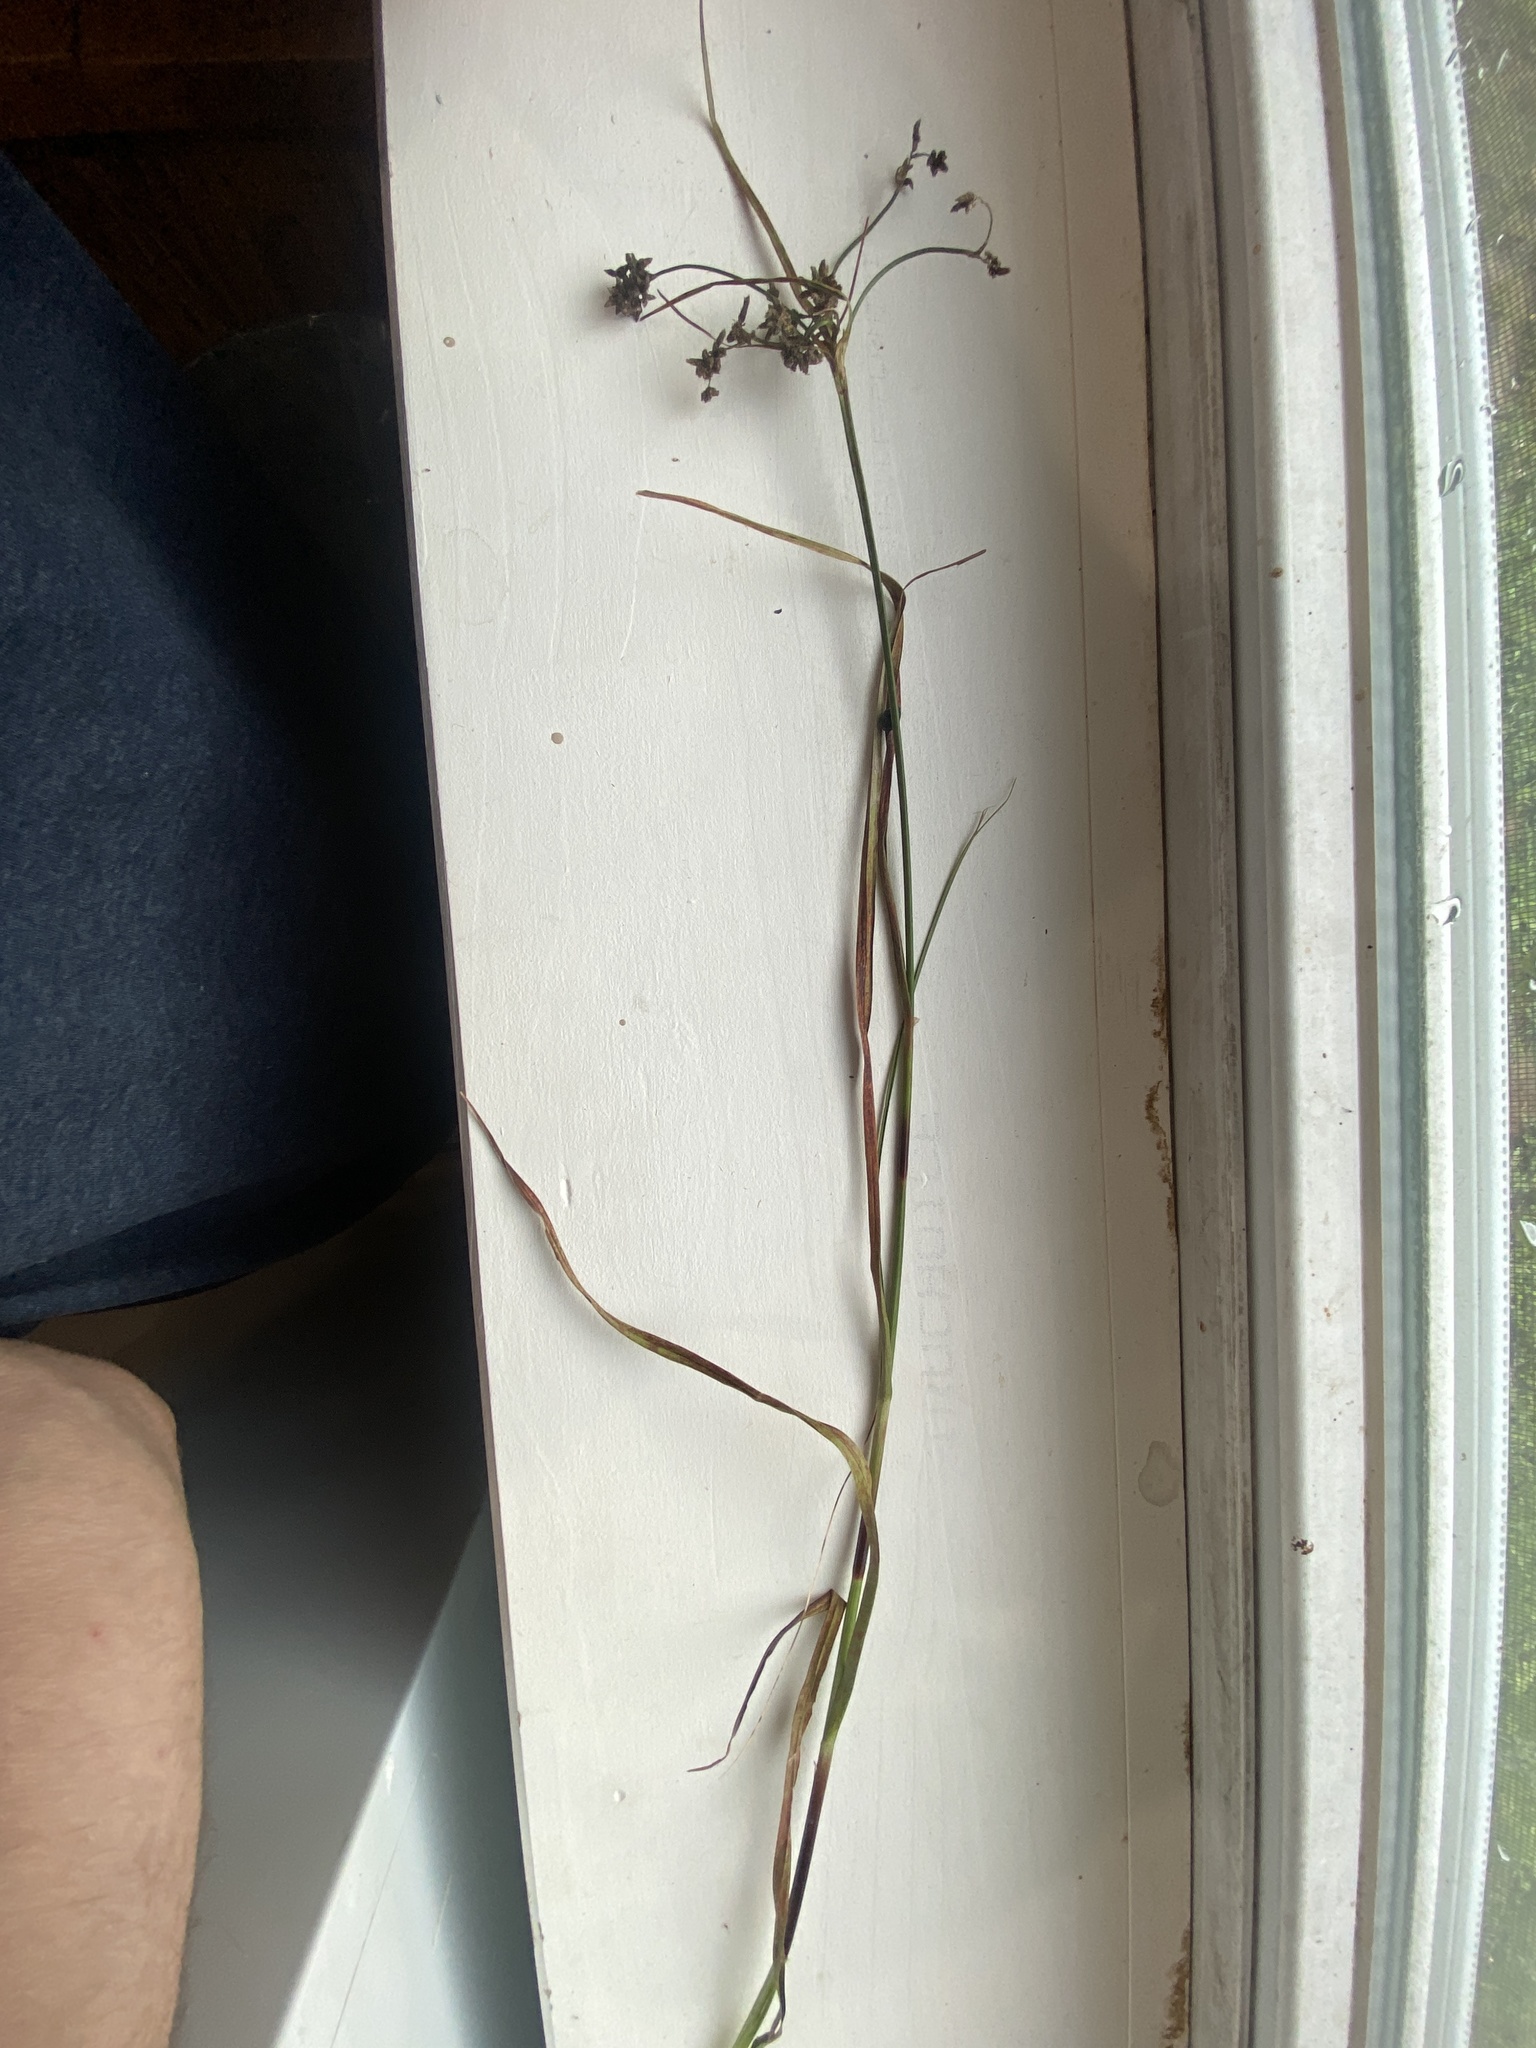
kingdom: Plantae
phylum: Tracheophyta
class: Liliopsida
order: Poales
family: Cyperaceae
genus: Scirpus
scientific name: Scirpus microcarpus
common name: Panicled bulrush
